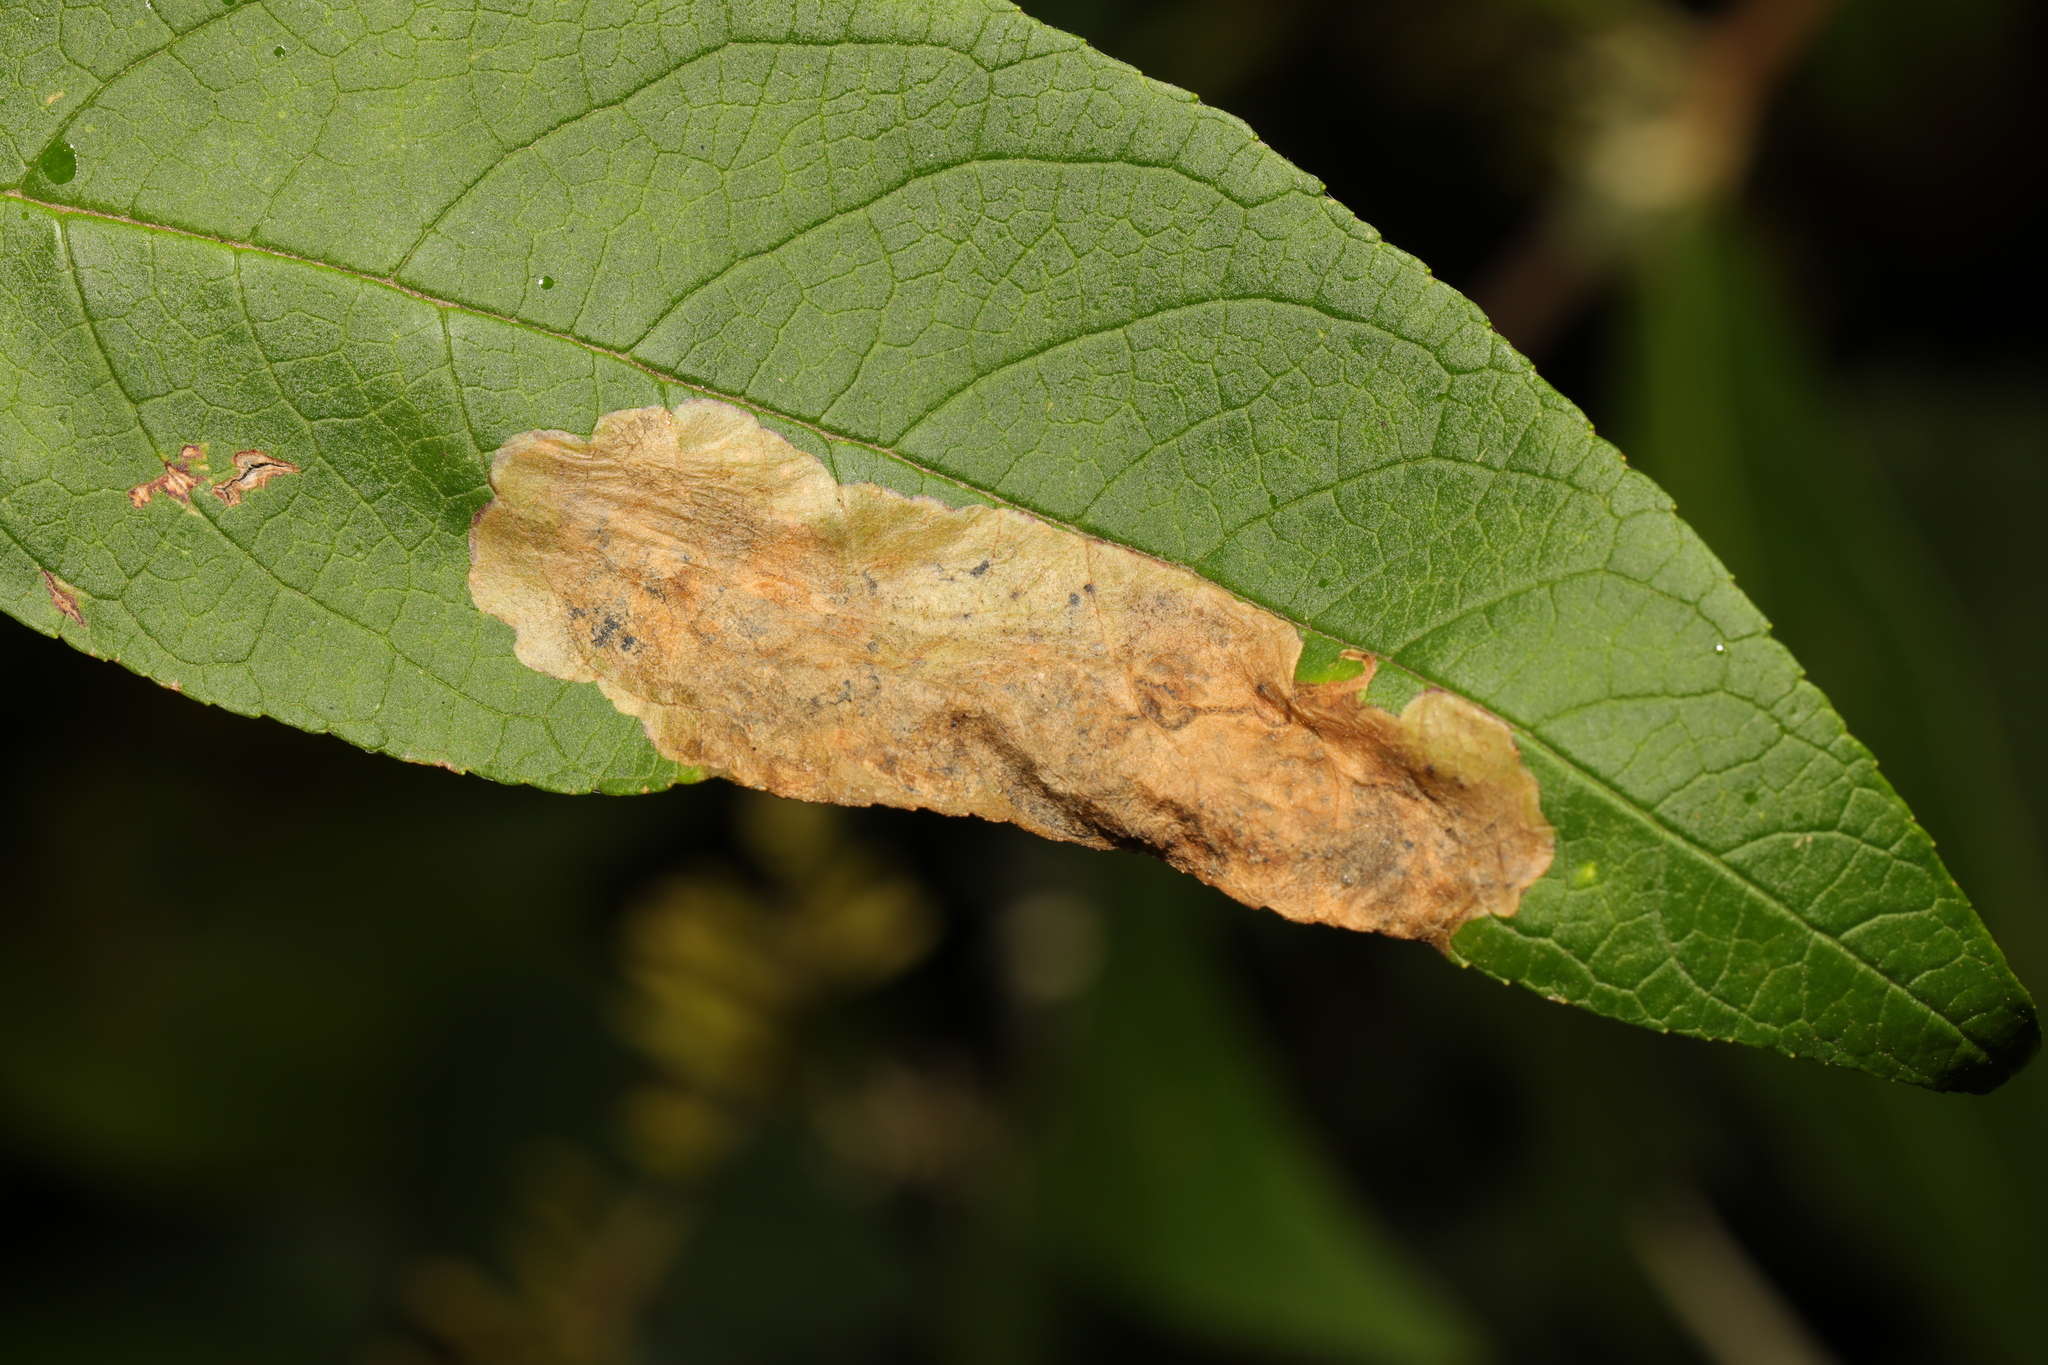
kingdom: Animalia
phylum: Arthropoda
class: Insecta
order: Diptera
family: Agromyzidae
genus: Amauromyza
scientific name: Amauromyza verbasci
